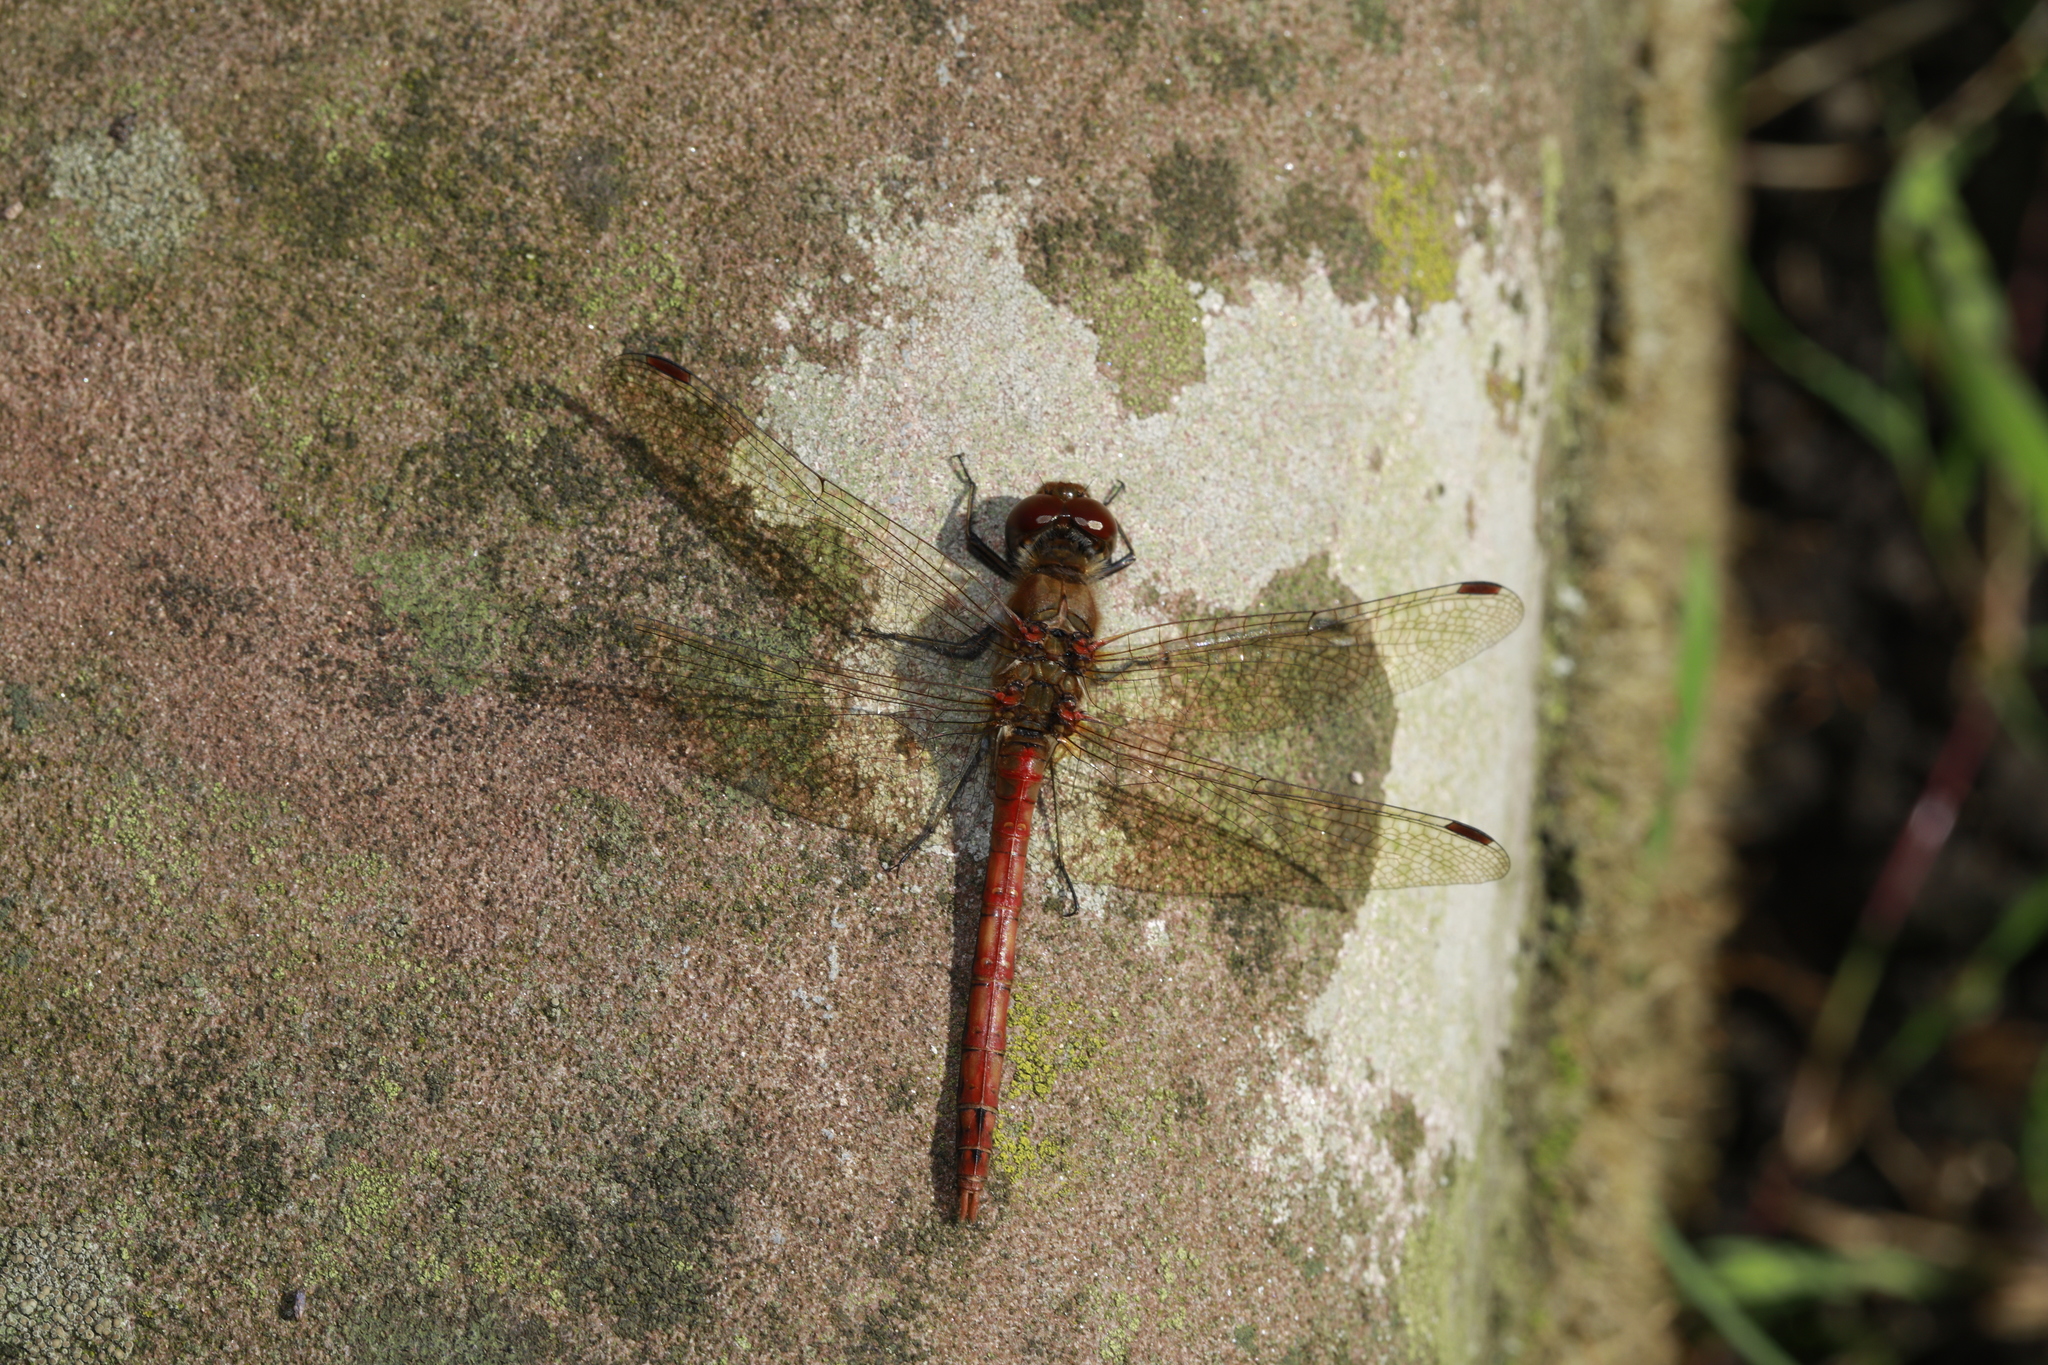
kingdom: Animalia
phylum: Arthropoda
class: Insecta
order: Odonata
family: Libellulidae
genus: Sympetrum
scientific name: Sympetrum striolatum
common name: Common darter
